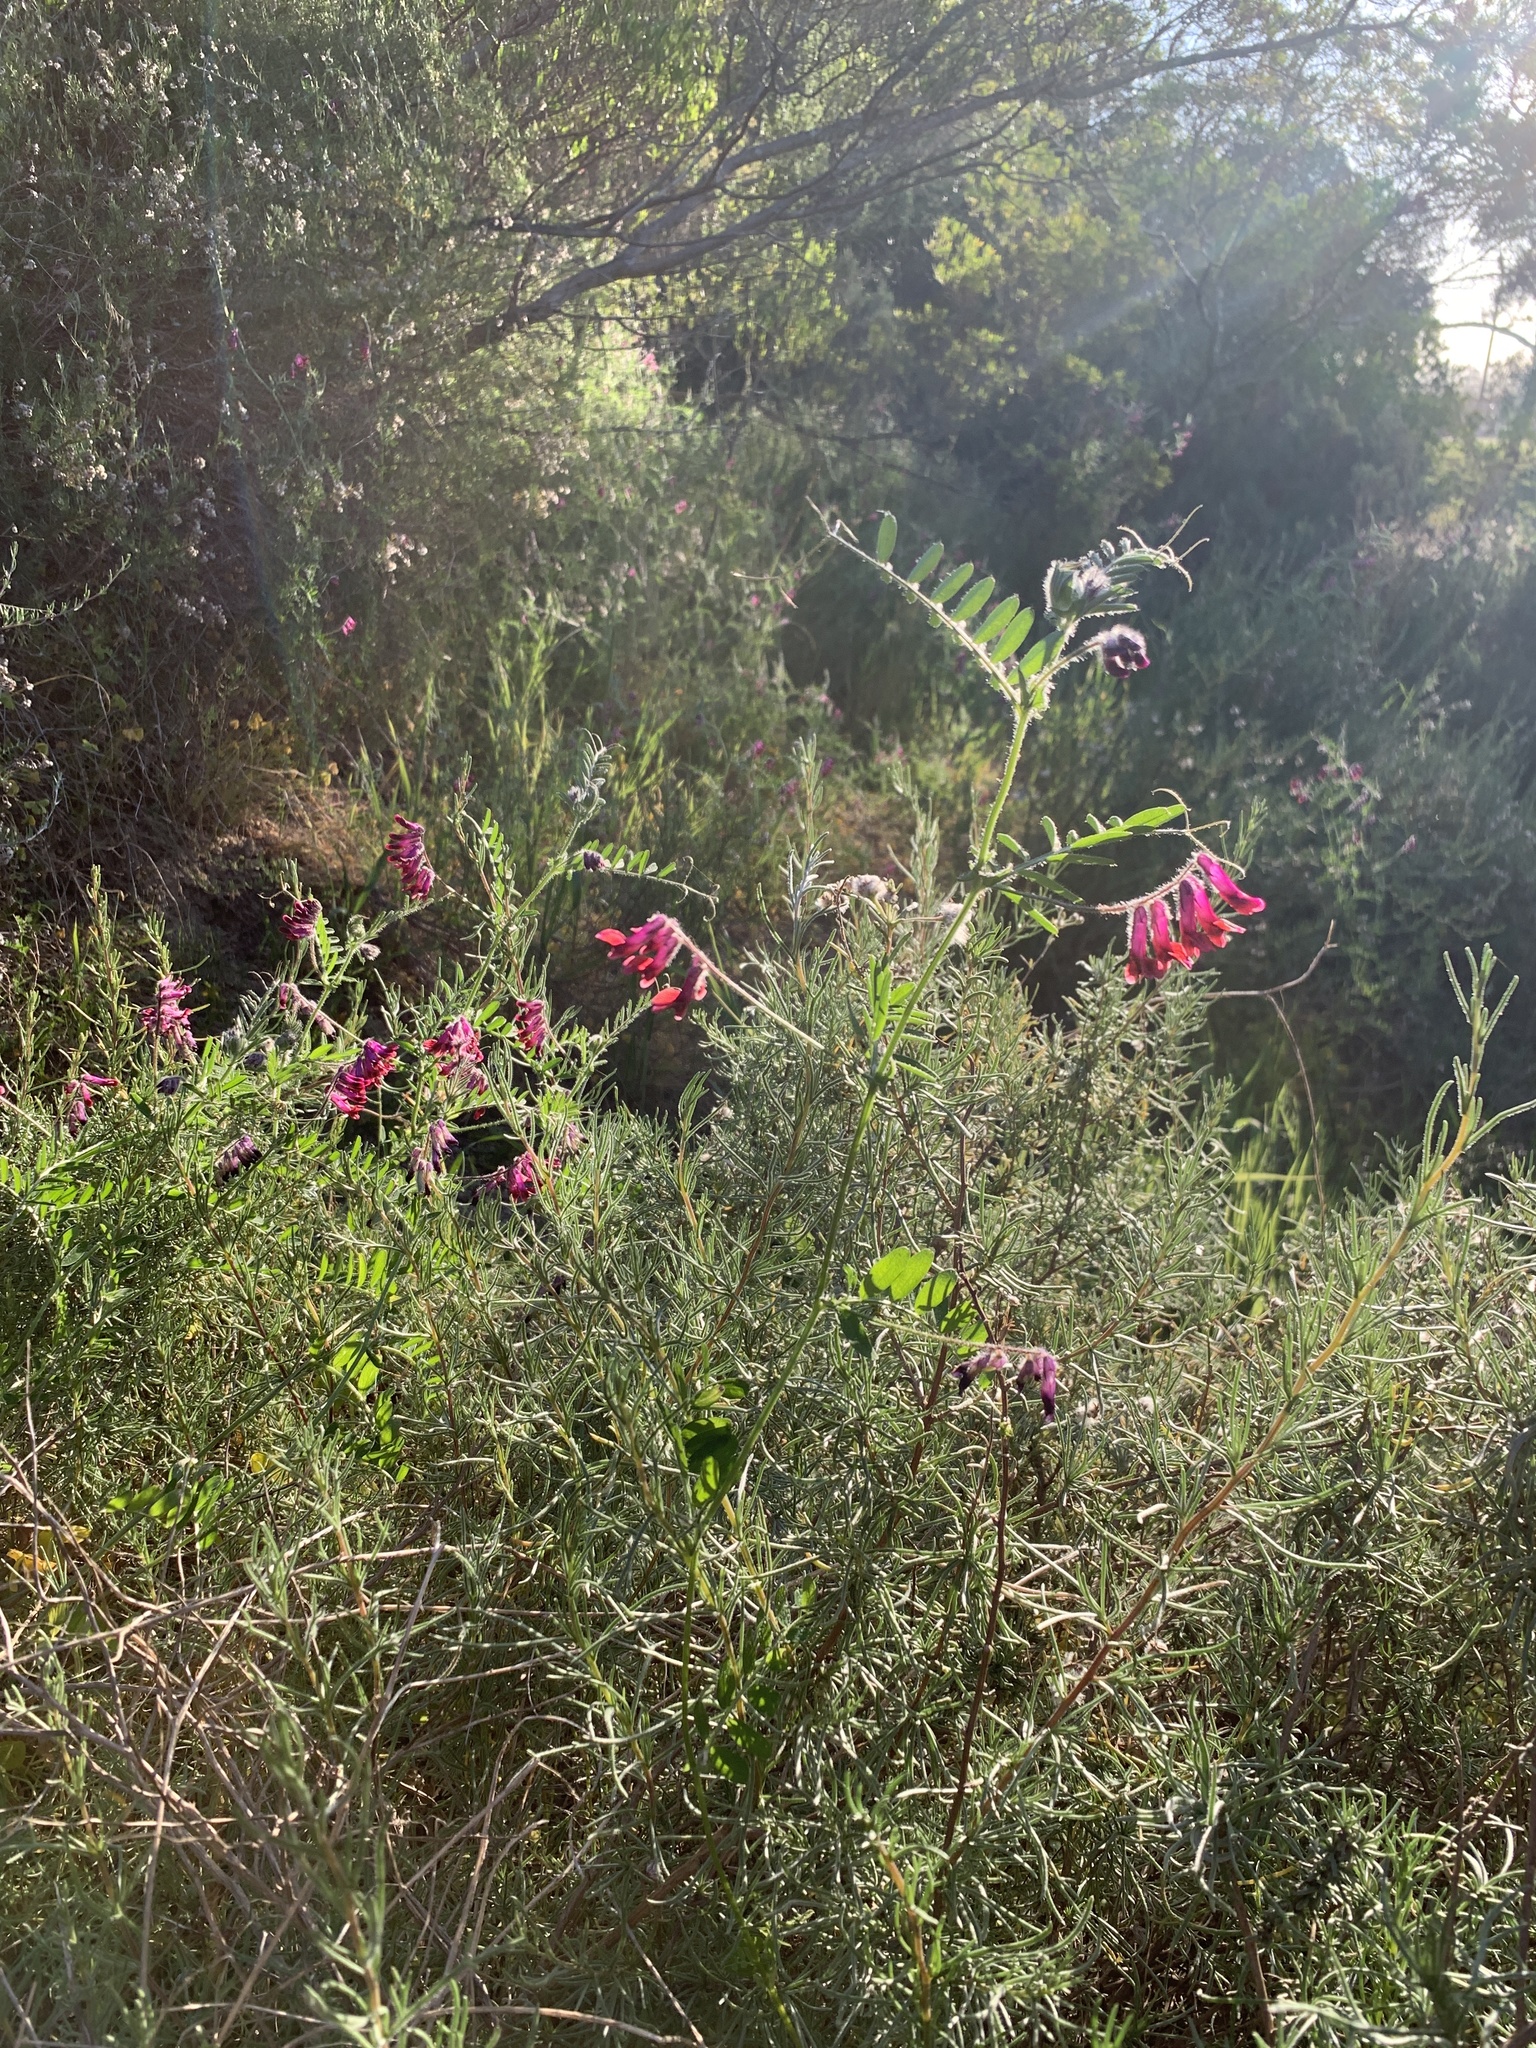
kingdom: Plantae
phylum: Tracheophyta
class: Magnoliopsida
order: Fabales
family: Fabaceae
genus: Vicia
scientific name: Vicia benghalensis
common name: Purple vetch
